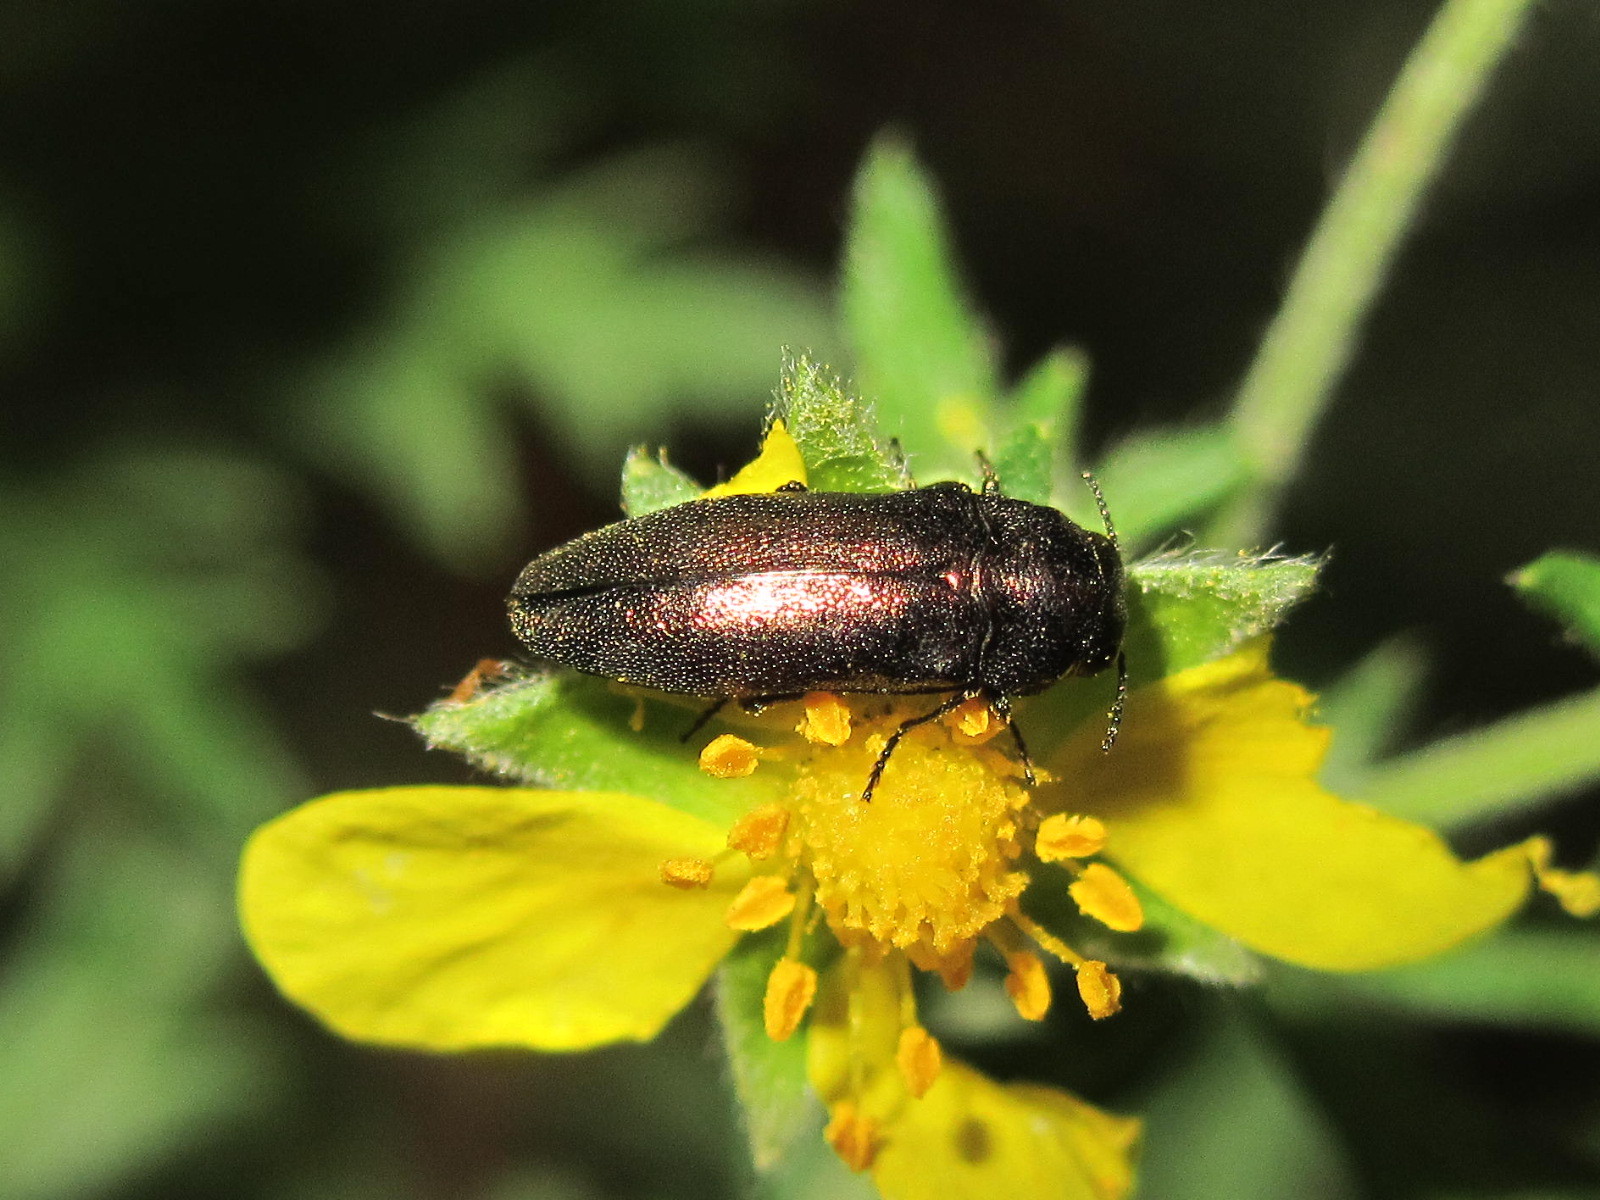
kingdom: Animalia
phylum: Arthropoda
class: Insecta
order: Coleoptera
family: Buprestidae
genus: Coraebus
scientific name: Coraebus elatus
